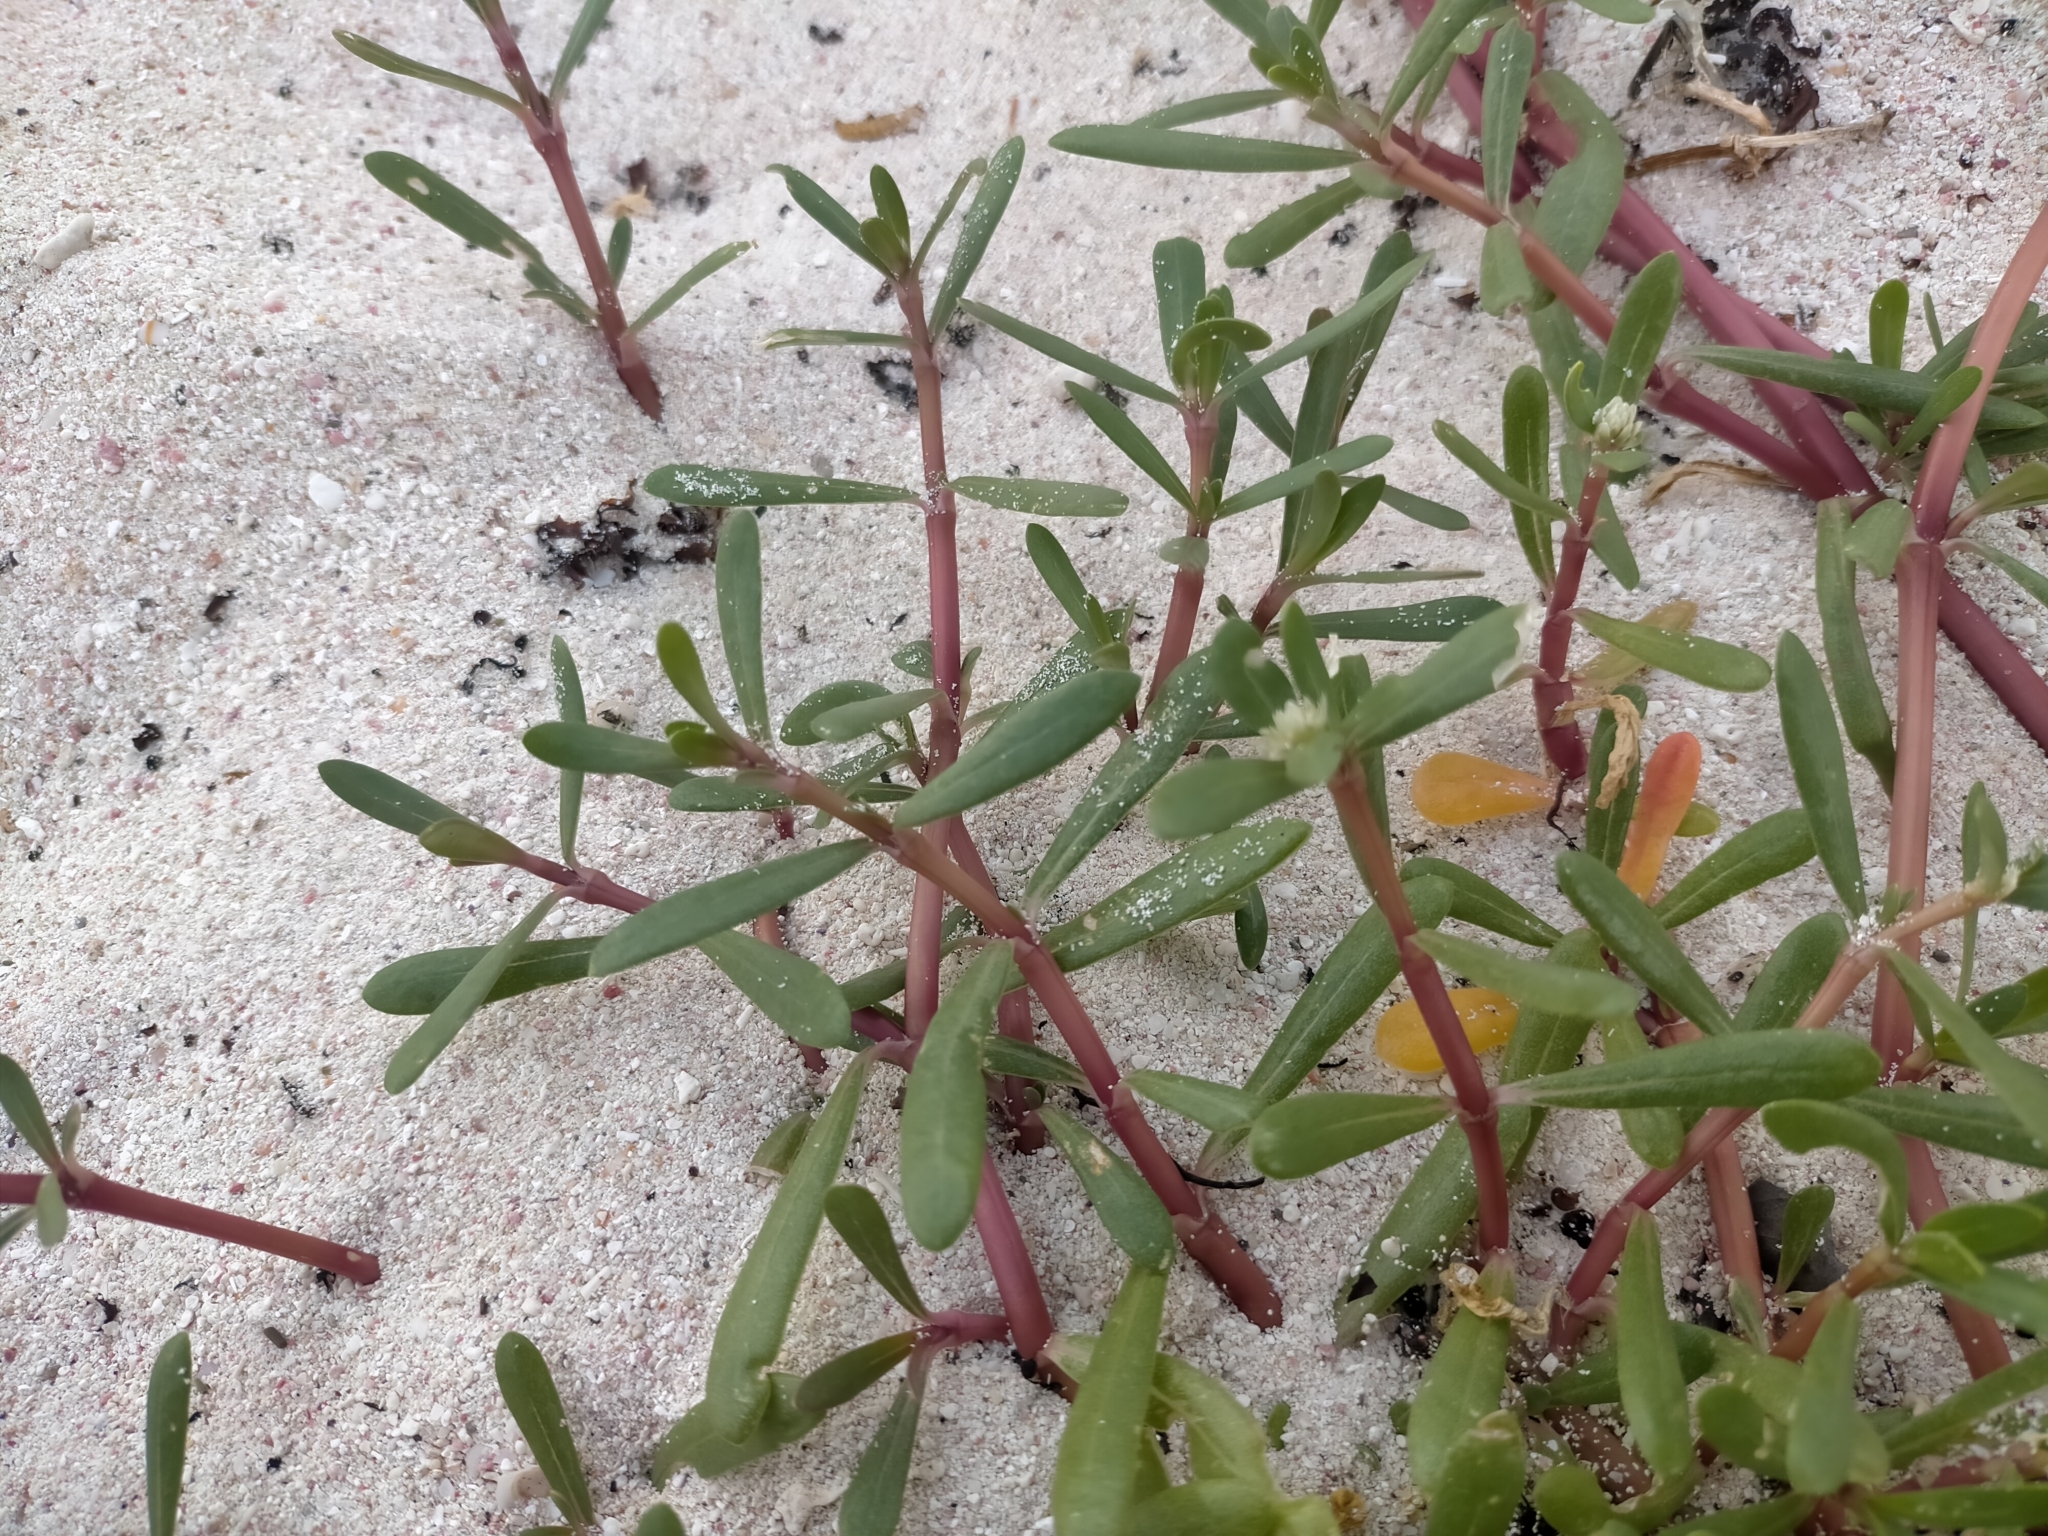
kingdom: Plantae
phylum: Tracheophyta
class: Magnoliopsida
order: Caryophyllales
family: Amaranthaceae
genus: Gomphrena
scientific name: Gomphrena vermicularis
